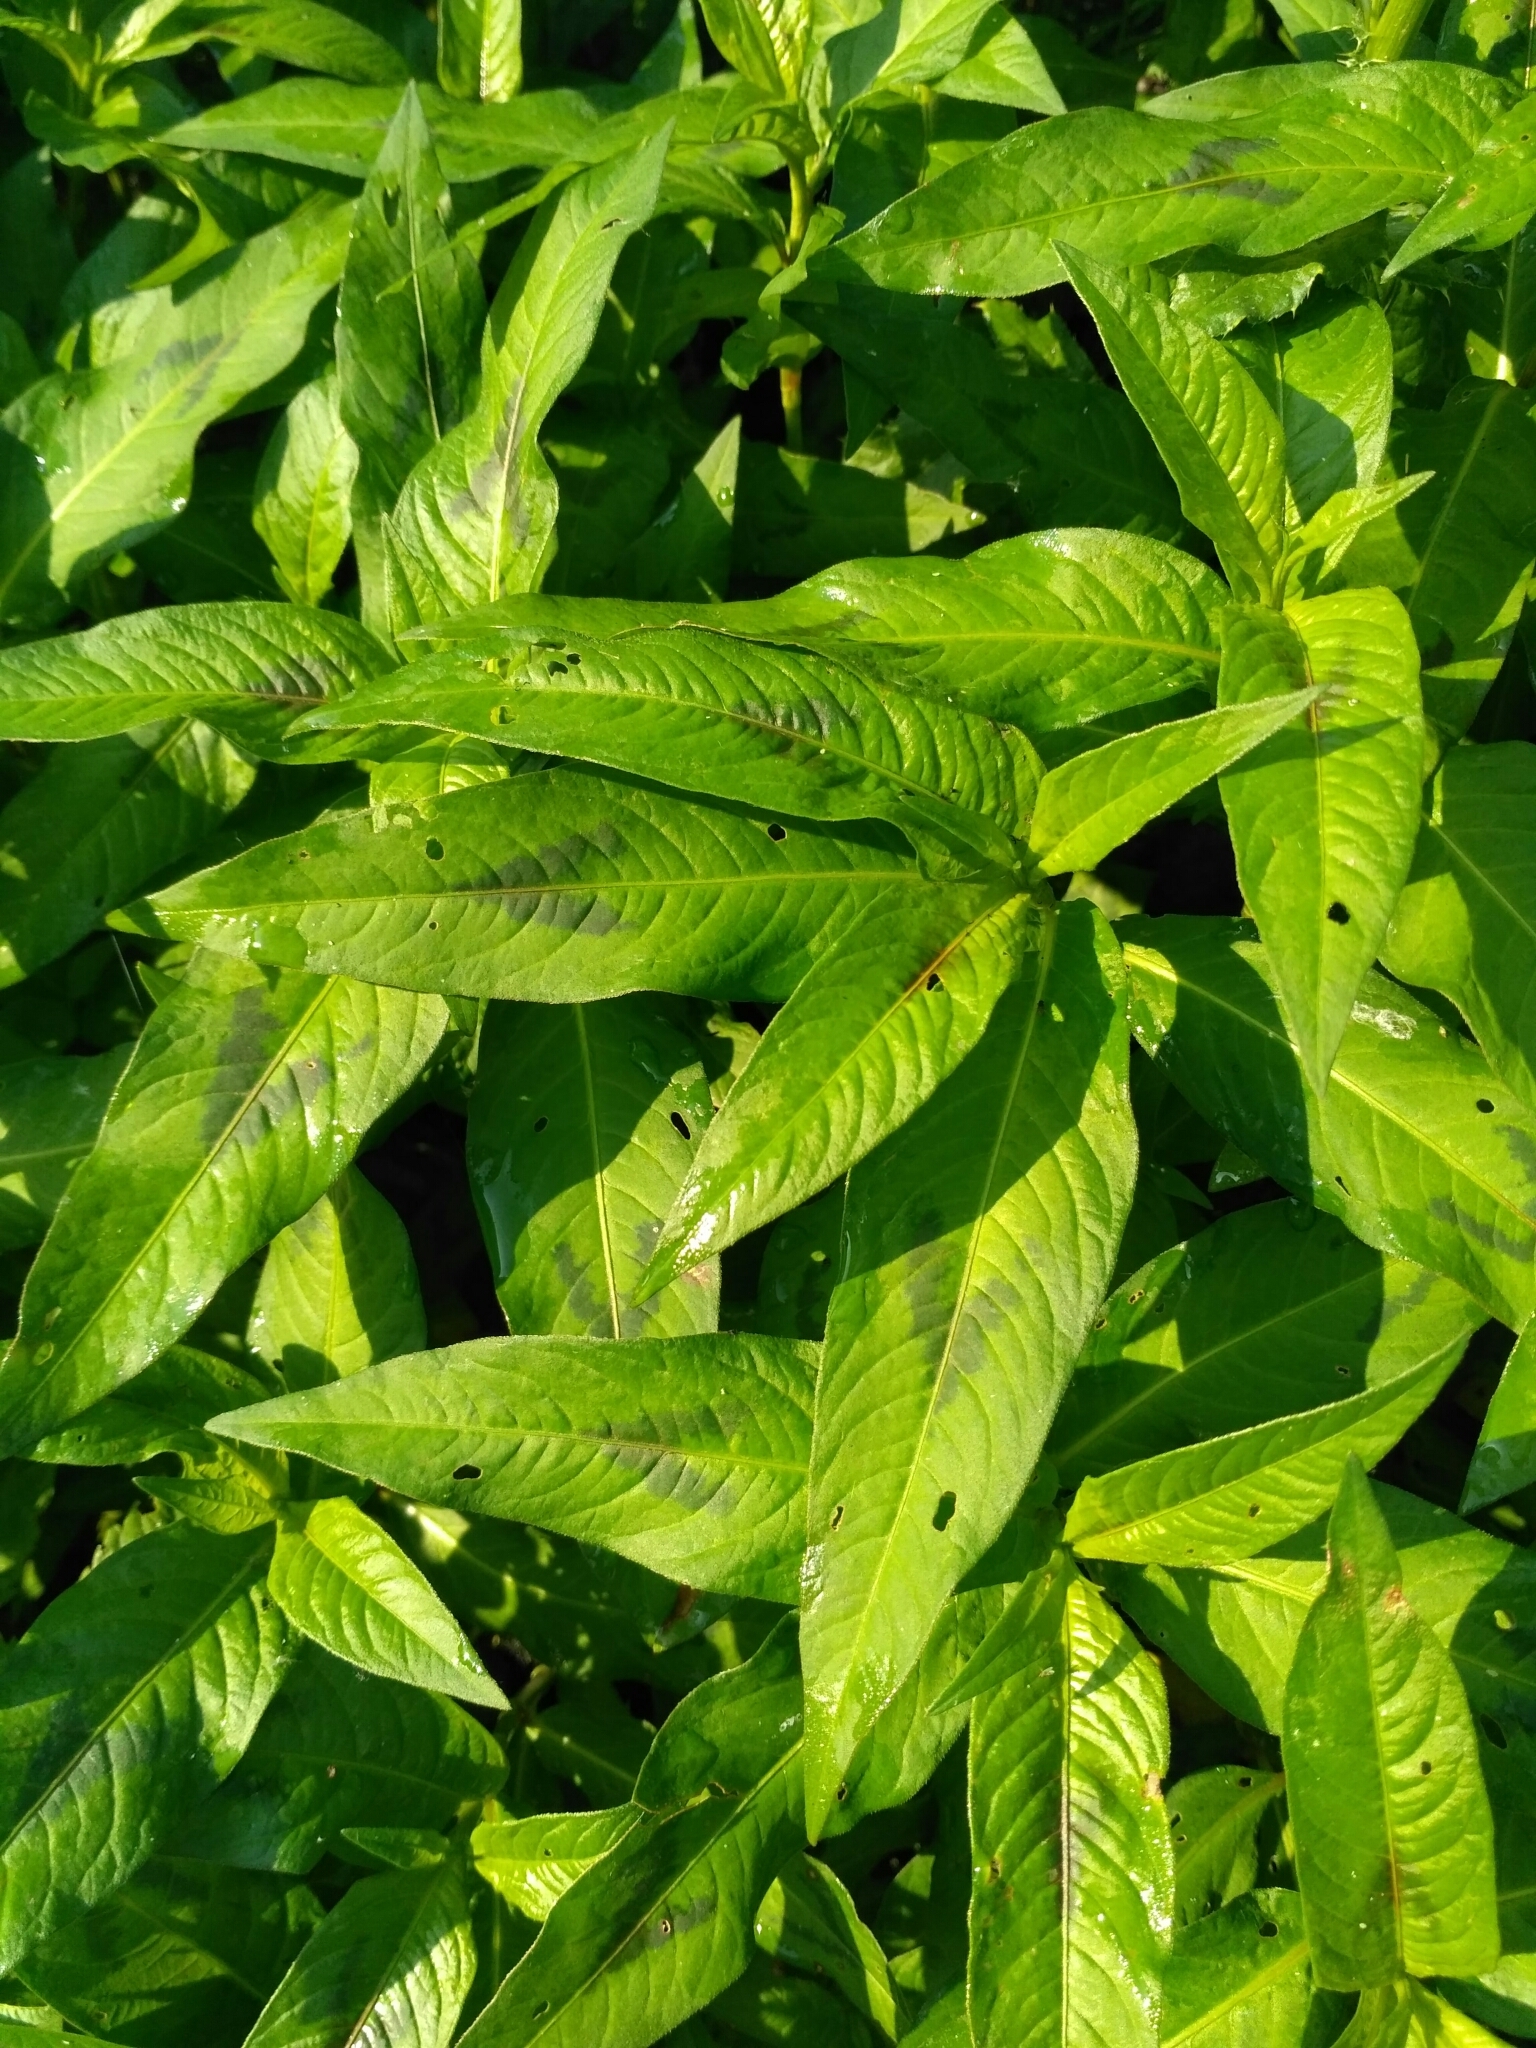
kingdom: Plantae
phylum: Tracheophyta
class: Magnoliopsida
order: Caryophyllales
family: Polygonaceae
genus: Persicaria
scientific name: Persicaria maculosa
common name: Redshank
